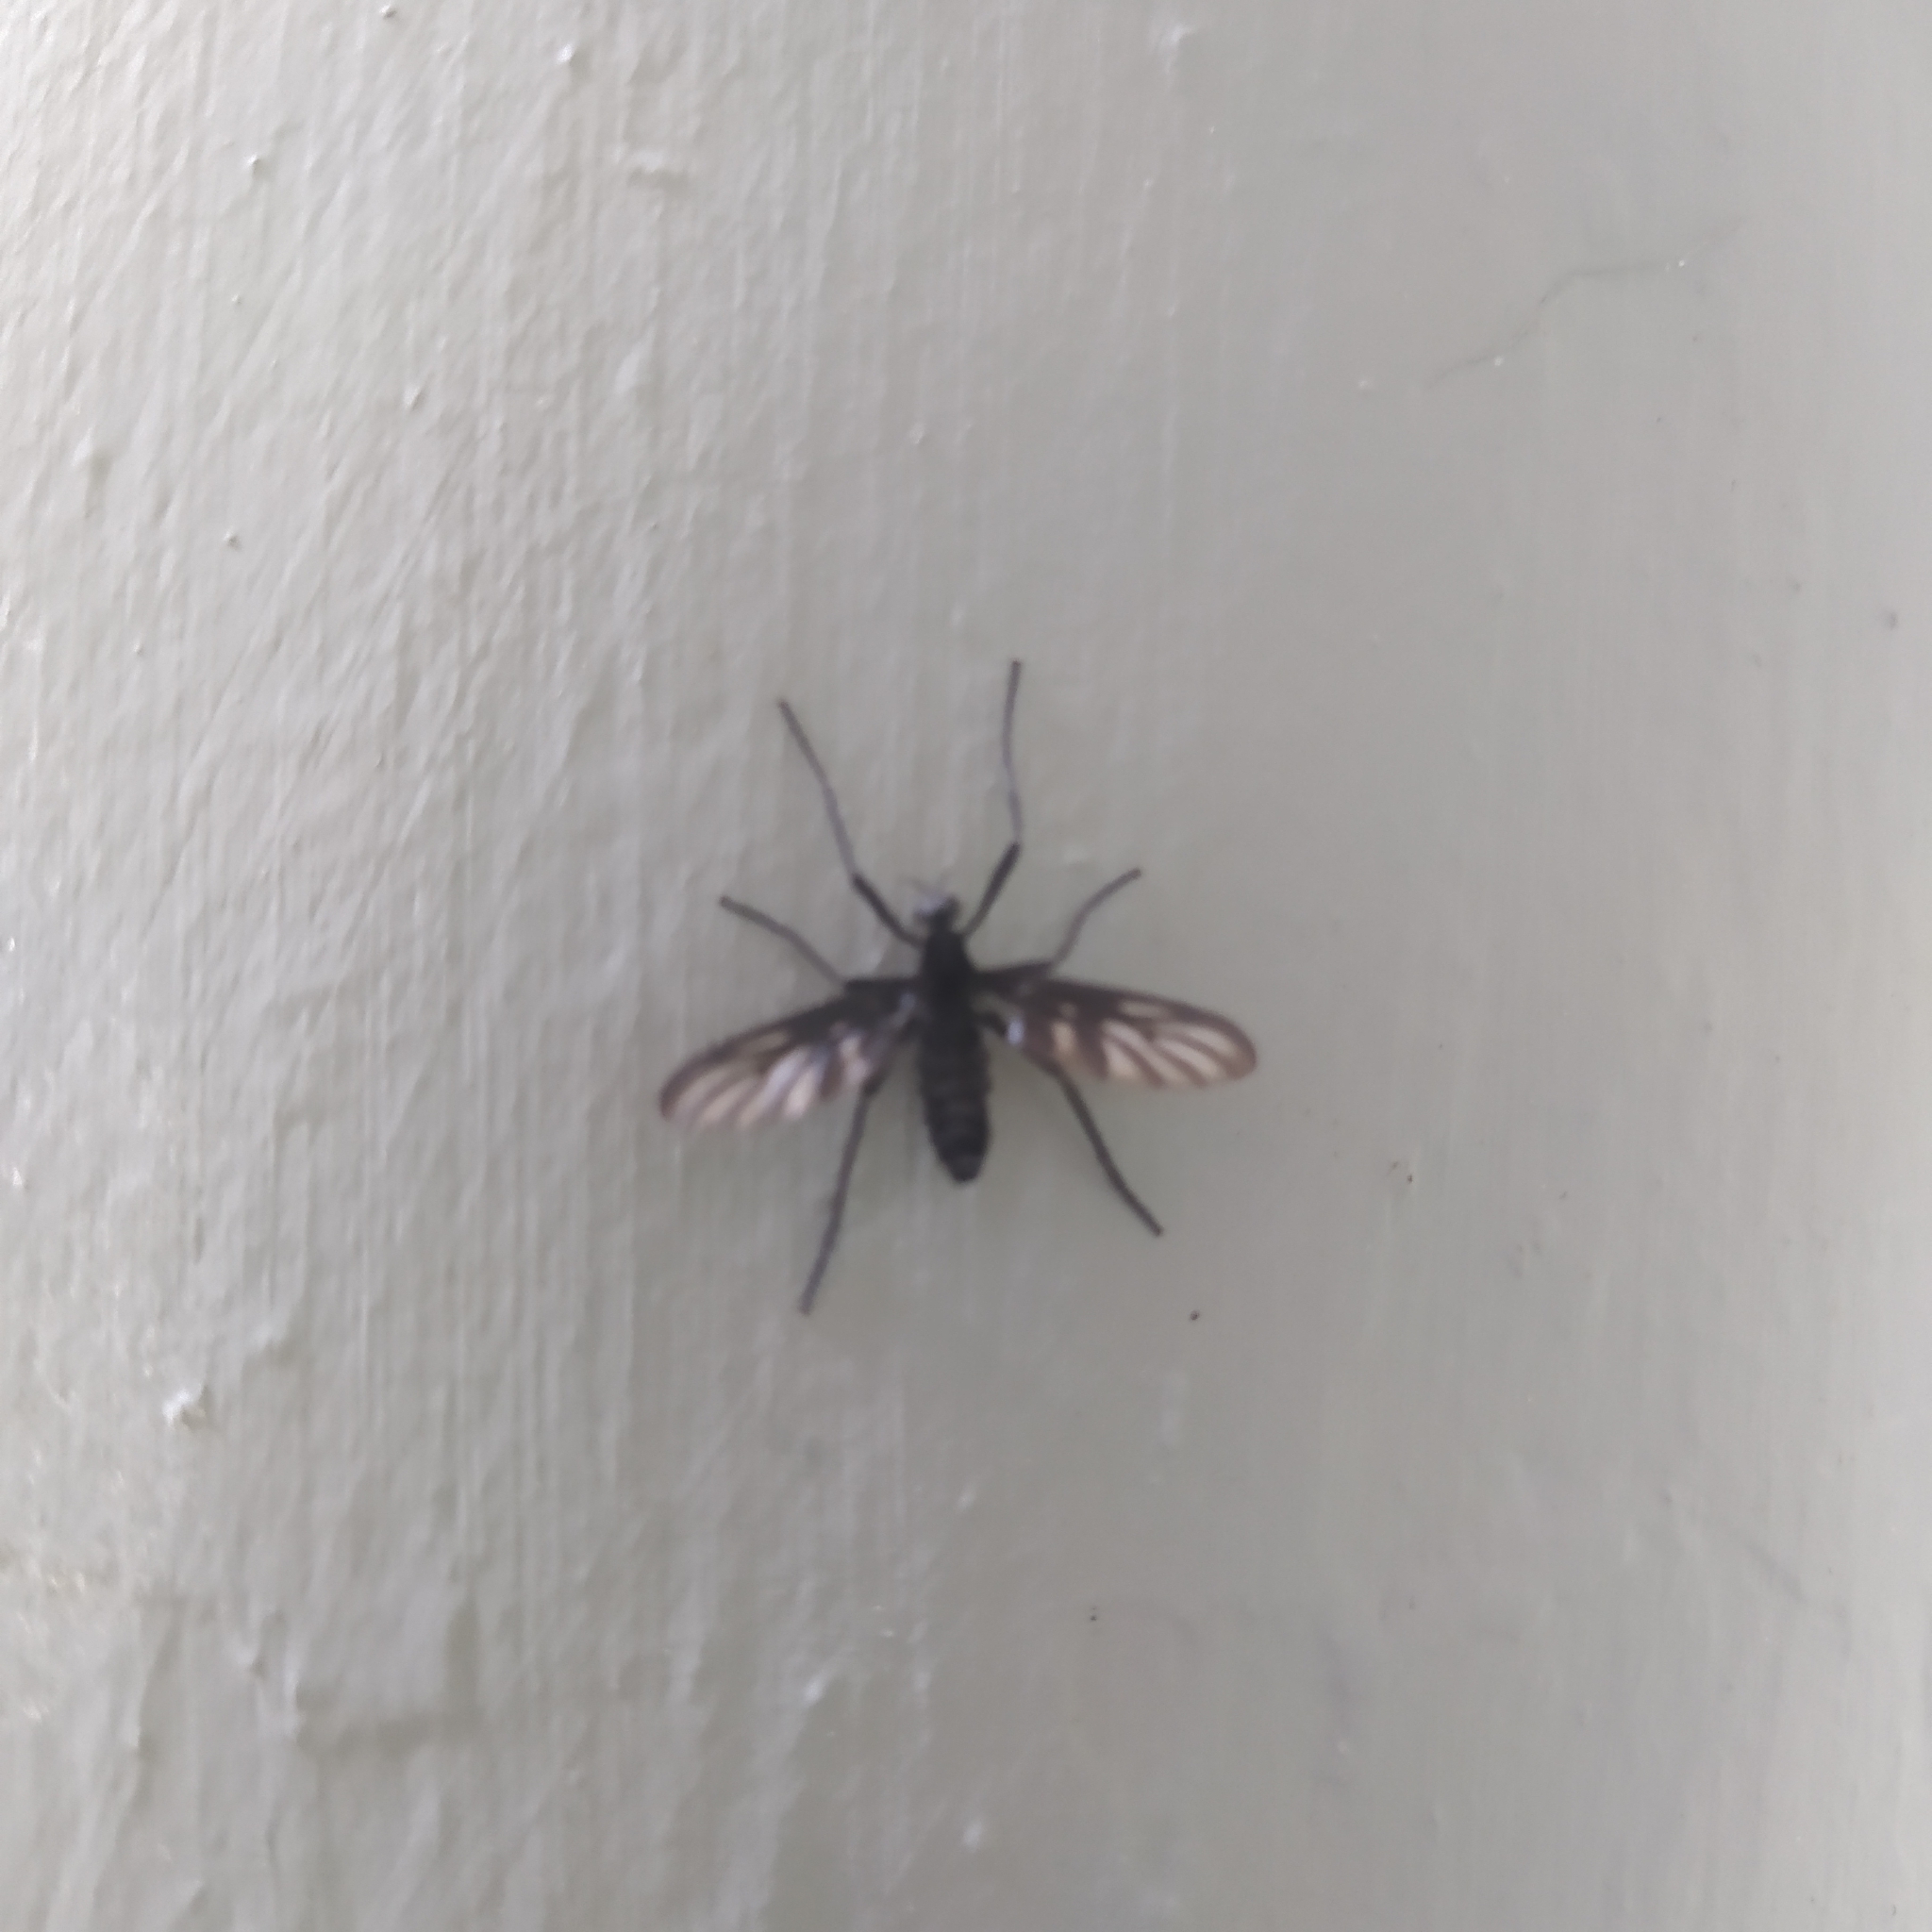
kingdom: Animalia
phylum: Arthropoda
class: Insecta
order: Diptera
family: Bibionidae
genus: Plecia
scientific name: Plecia plagiata
